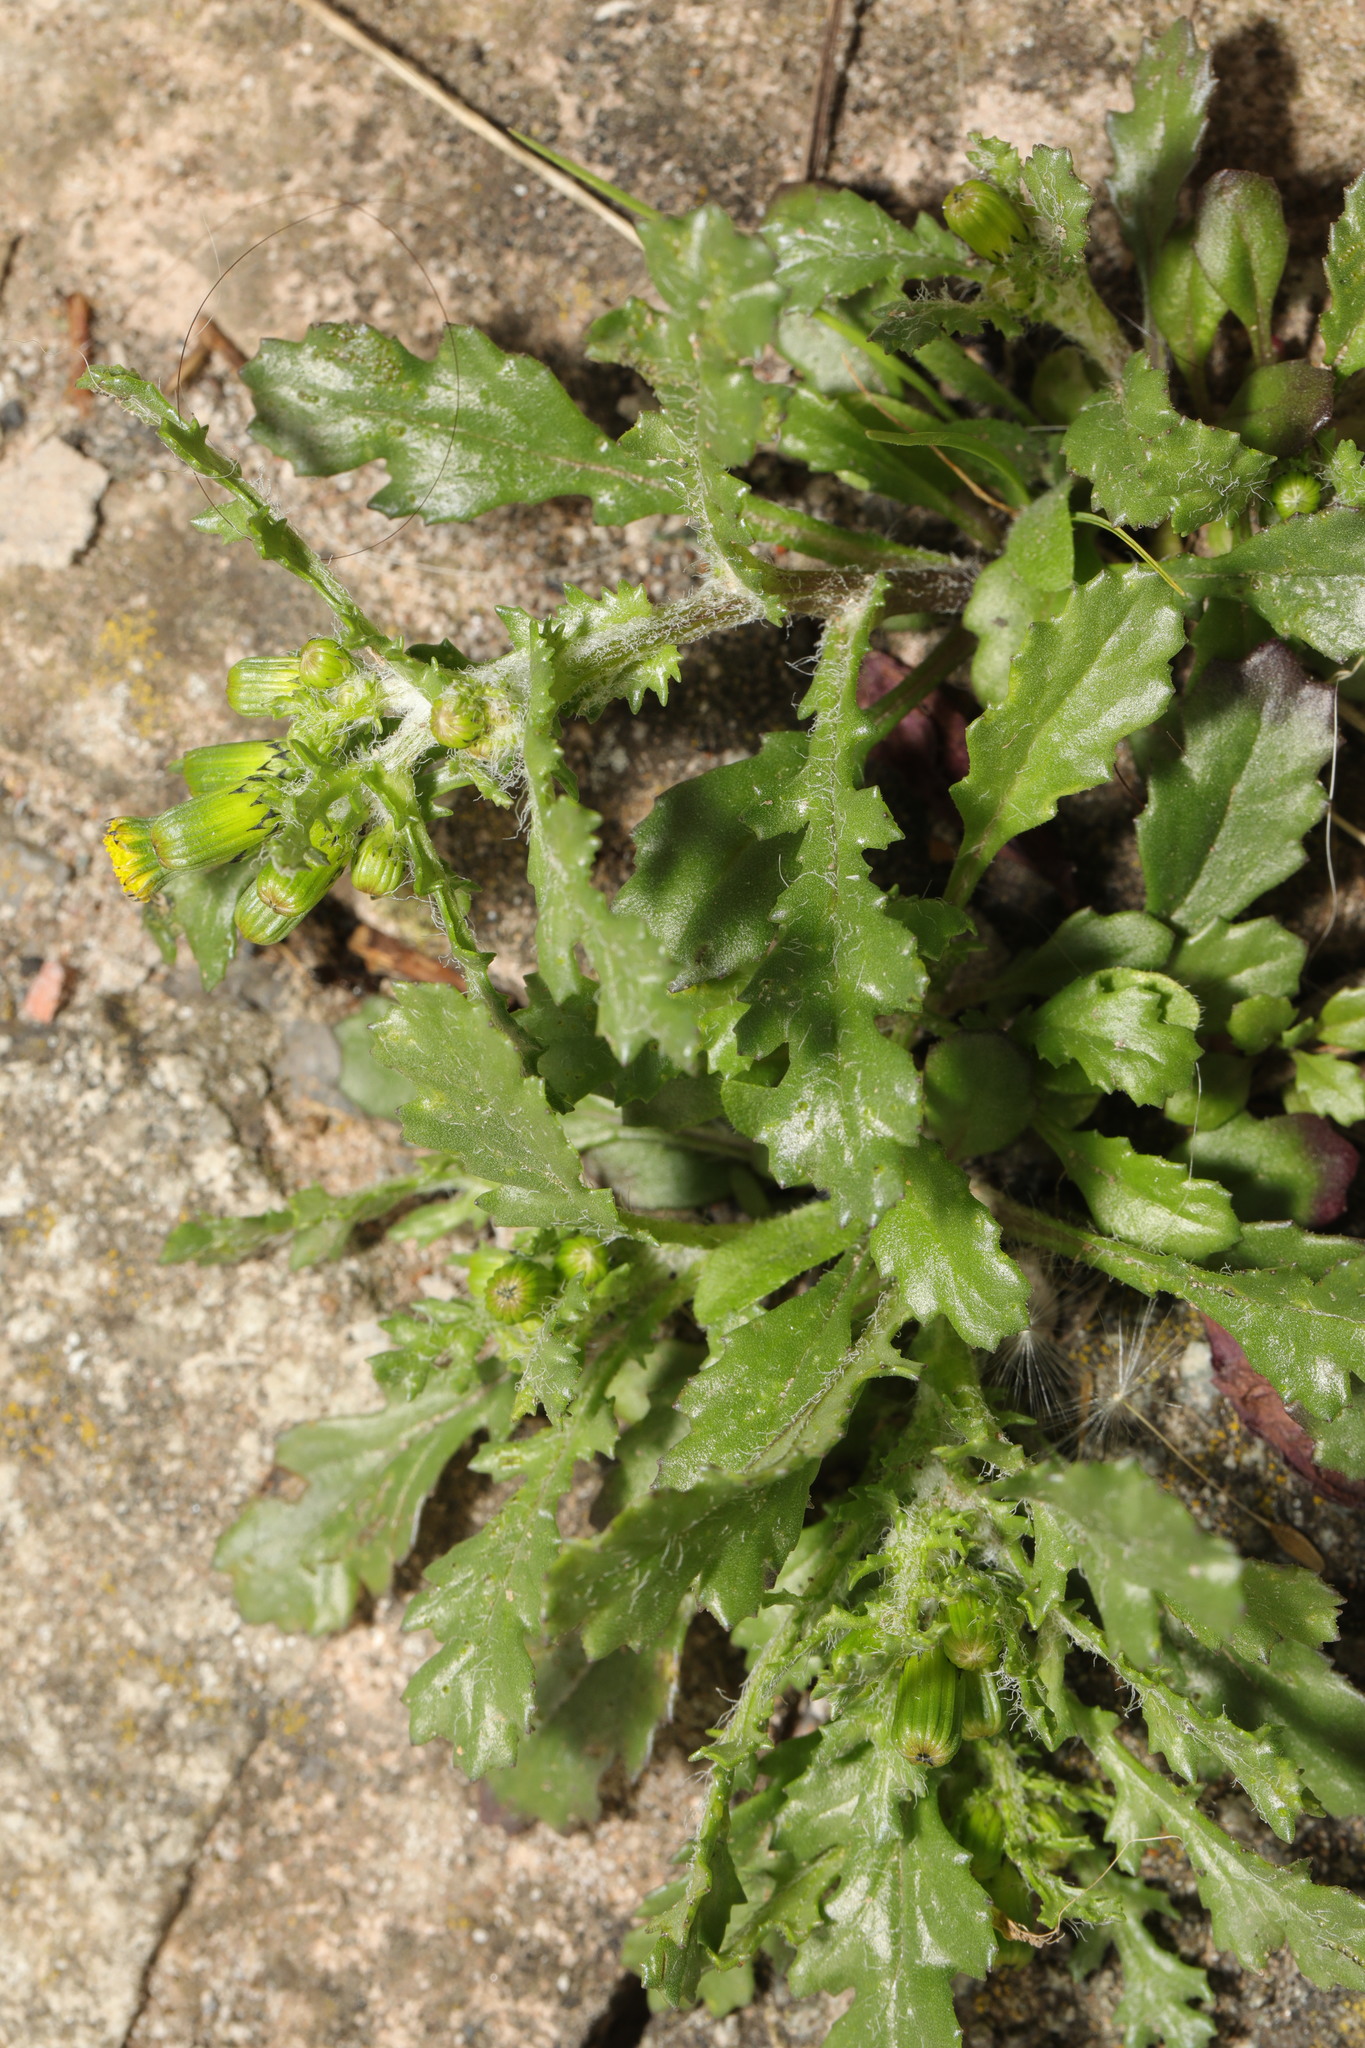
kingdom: Plantae
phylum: Tracheophyta
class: Magnoliopsida
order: Asterales
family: Asteraceae
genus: Senecio
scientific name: Senecio vulgaris
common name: Old-man-in-the-spring
